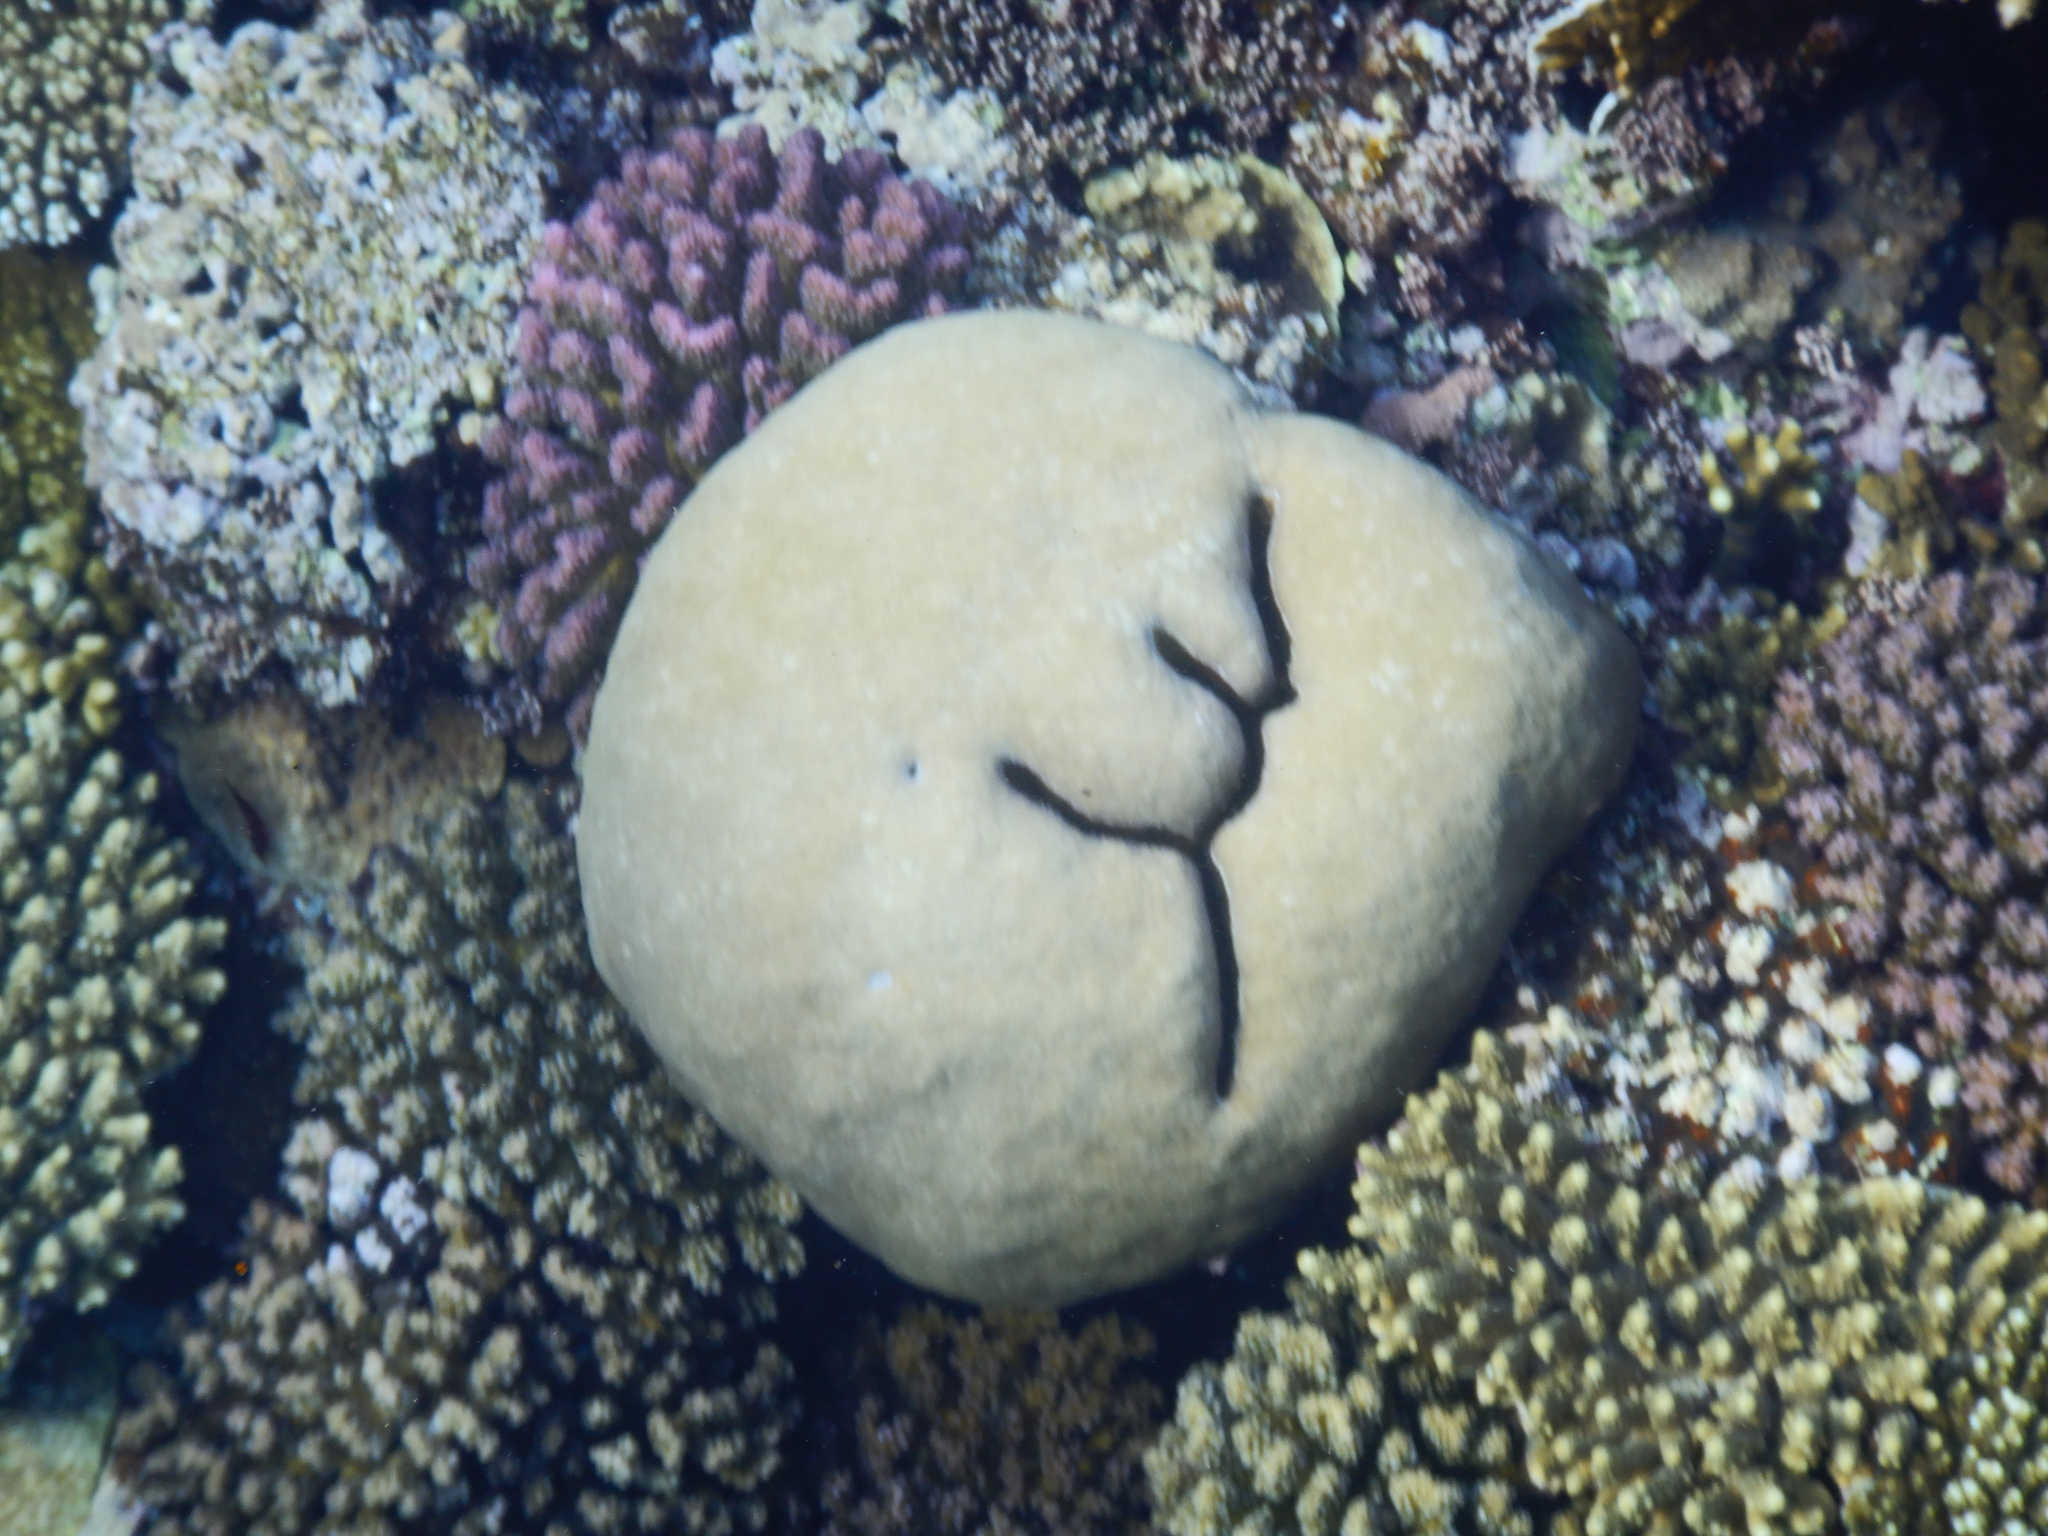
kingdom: Animalia
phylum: Arthropoda
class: Malacostraca
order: Decapoda
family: Alpheidae
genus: Alpheus
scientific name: Alpheus deuteropus
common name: Petroglyph shrimp
